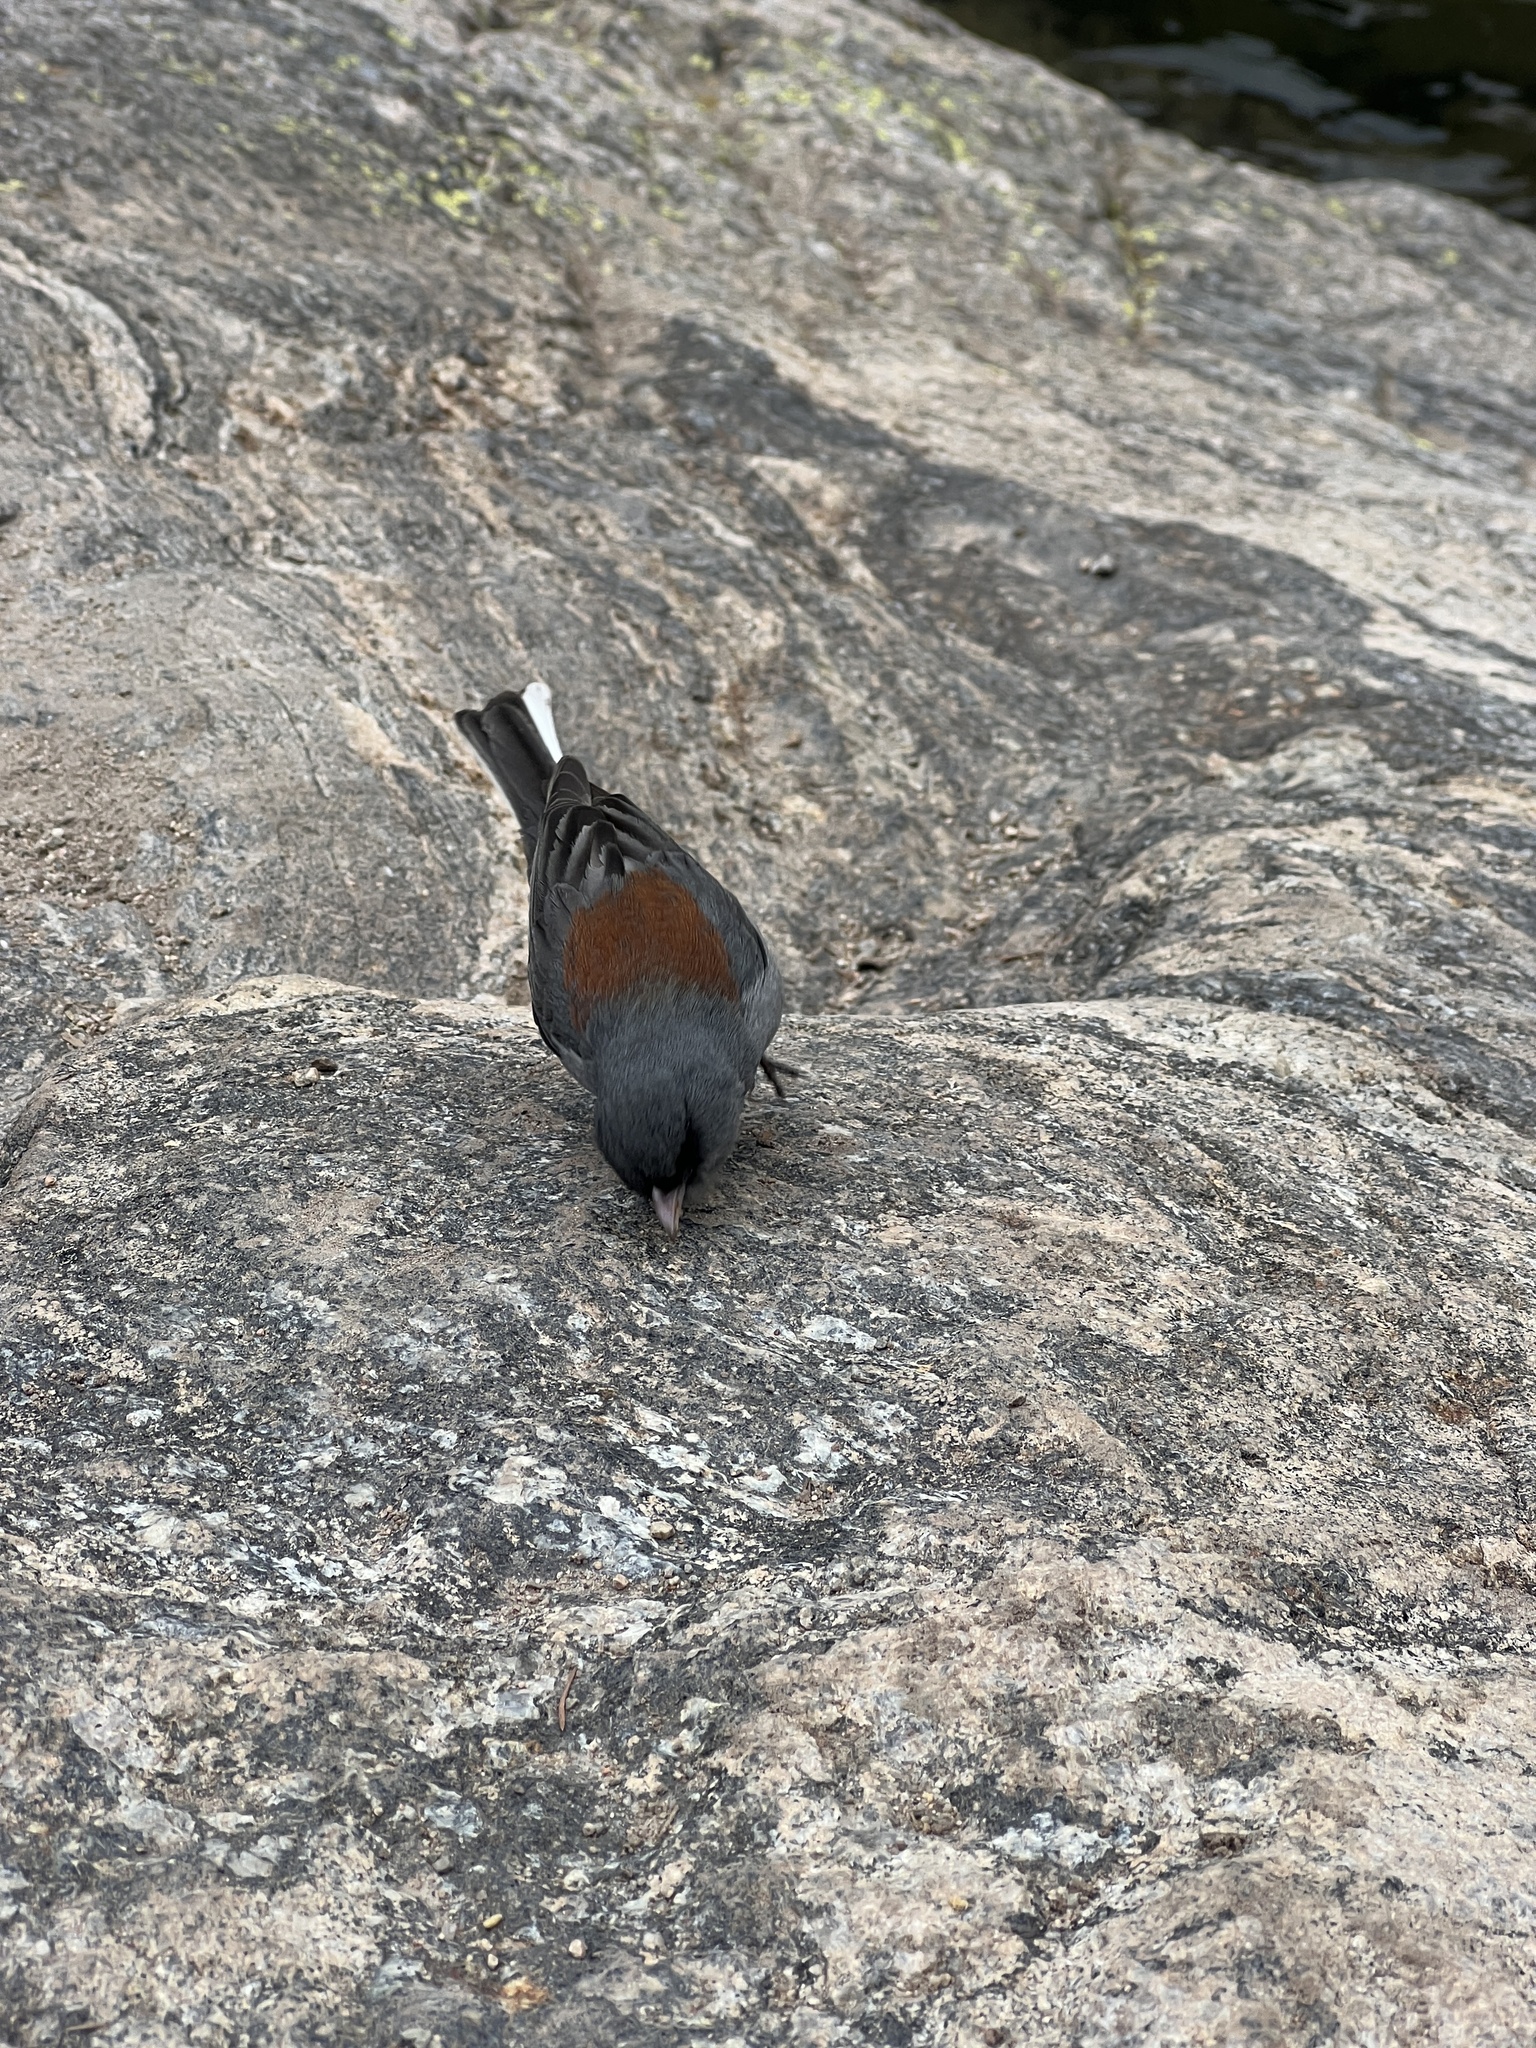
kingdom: Animalia
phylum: Chordata
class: Aves
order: Passeriformes
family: Passerellidae
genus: Junco
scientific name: Junco hyemalis
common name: Dark-eyed junco
